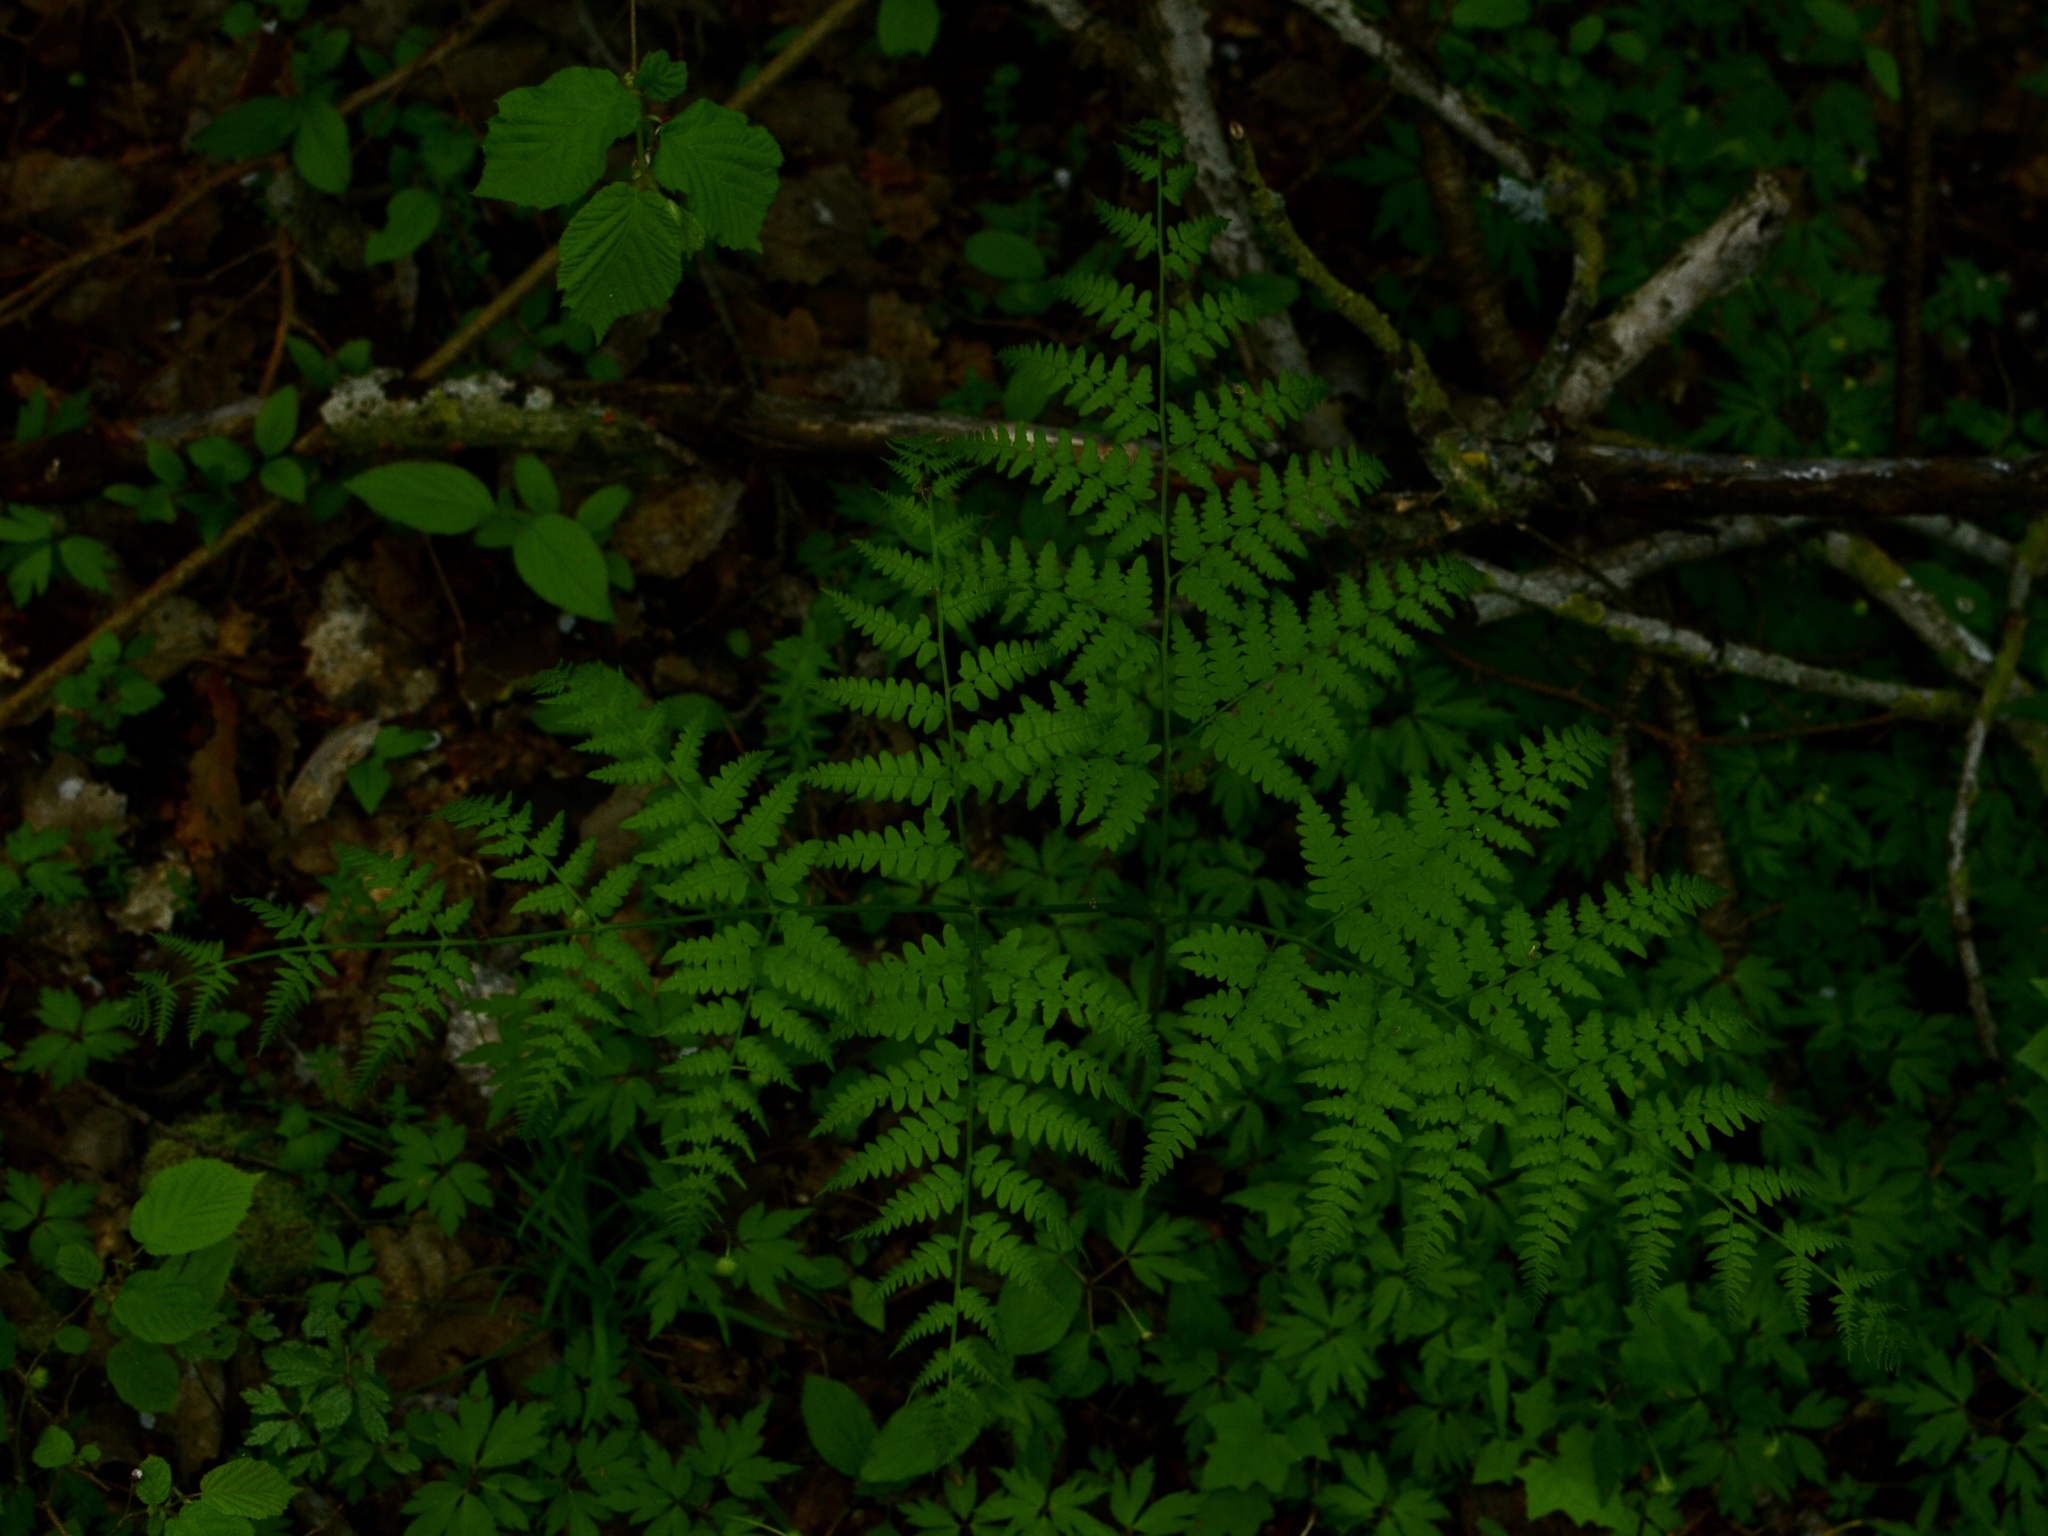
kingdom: Plantae
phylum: Tracheophyta
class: Polypodiopsida
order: Polypodiales
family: Dennstaedtiaceae
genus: Pteridium
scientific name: Pteridium aquilinum
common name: Bracken
